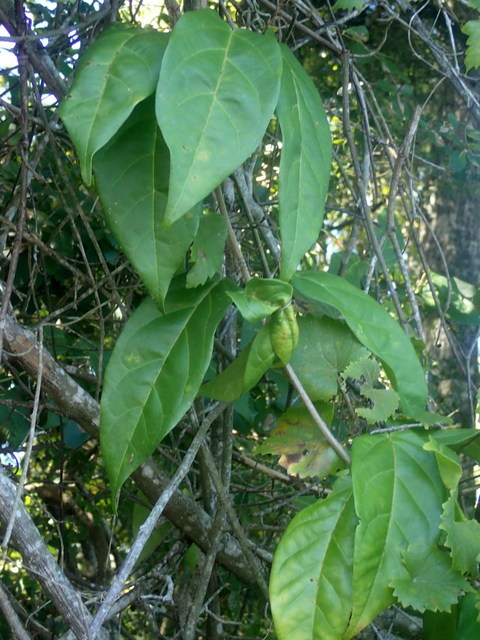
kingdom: Plantae
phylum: Tracheophyta
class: Magnoliopsida
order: Lamiales
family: Bignoniaceae
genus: Bignonia
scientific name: Bignonia capreolata
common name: Crossvine
